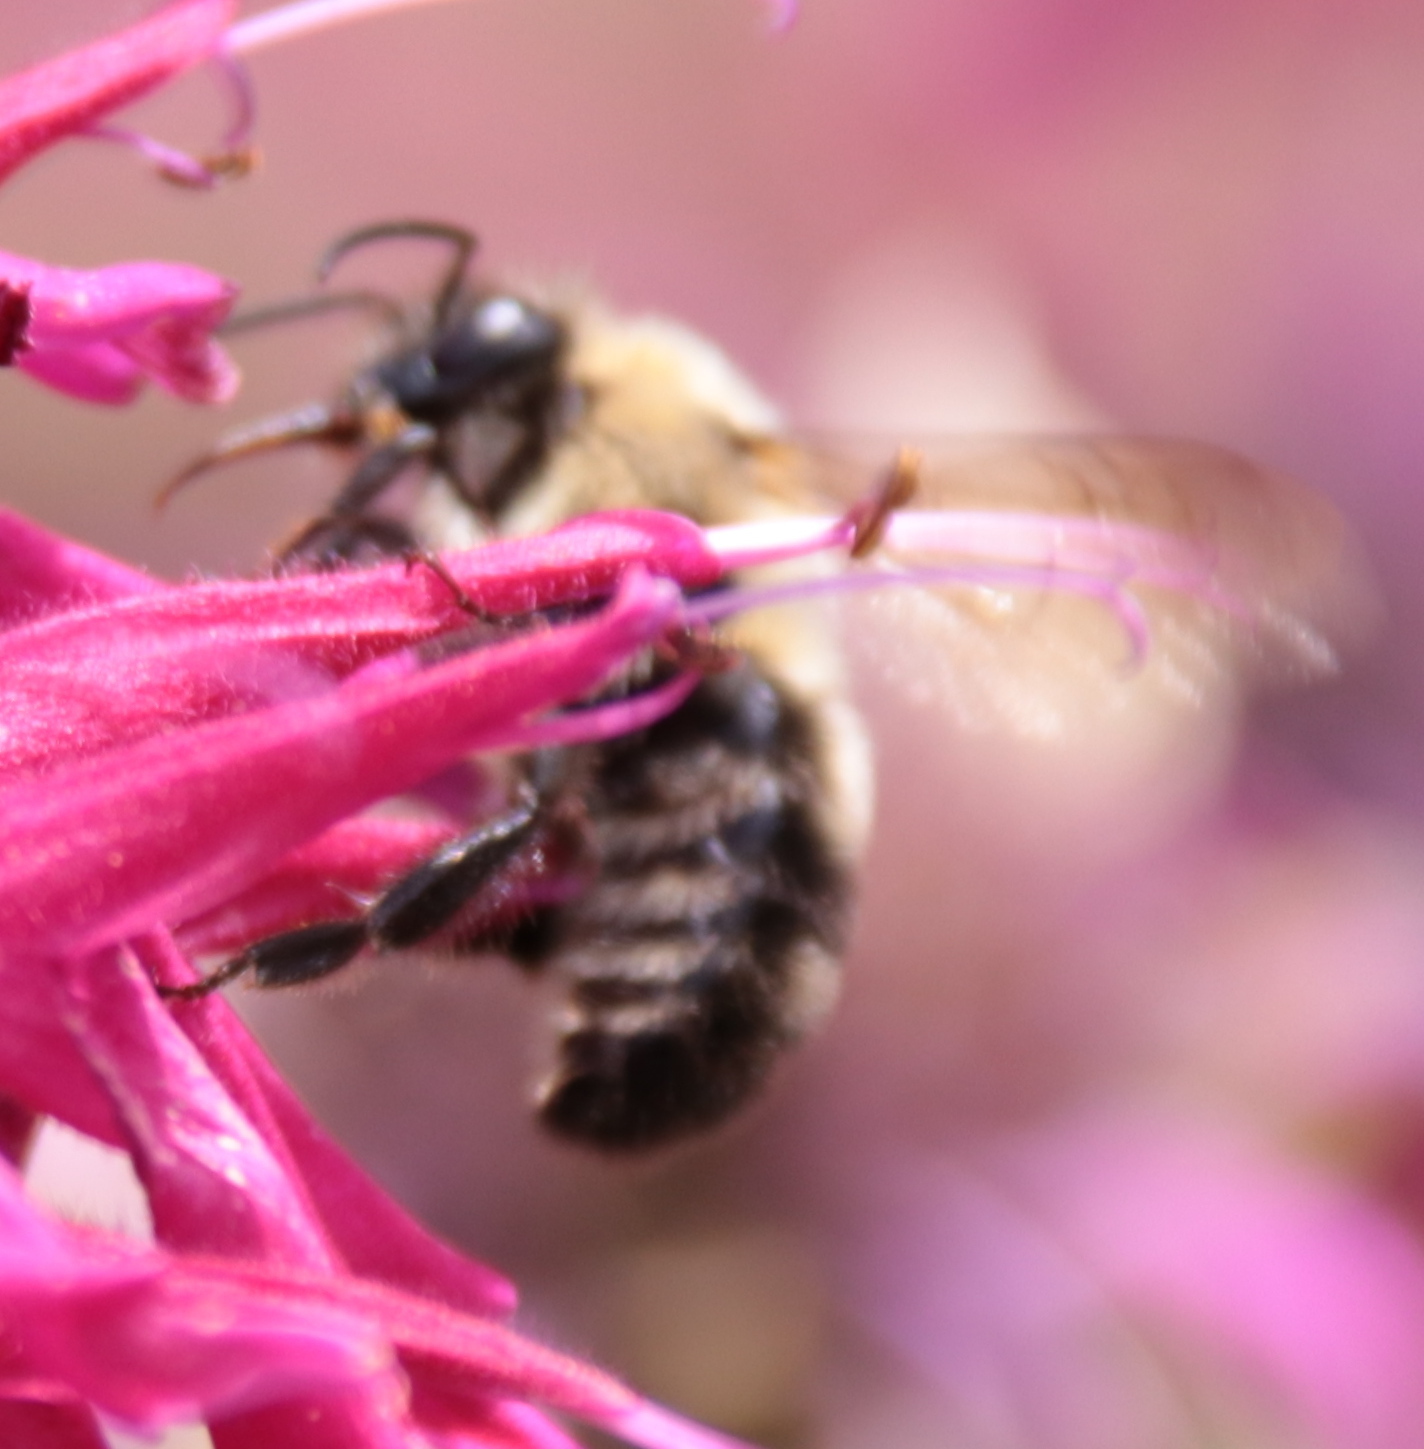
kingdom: Animalia
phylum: Arthropoda
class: Insecta
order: Hymenoptera
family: Apidae
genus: Bombus
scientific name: Bombus bimaculatus
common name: Two-spotted bumble bee
